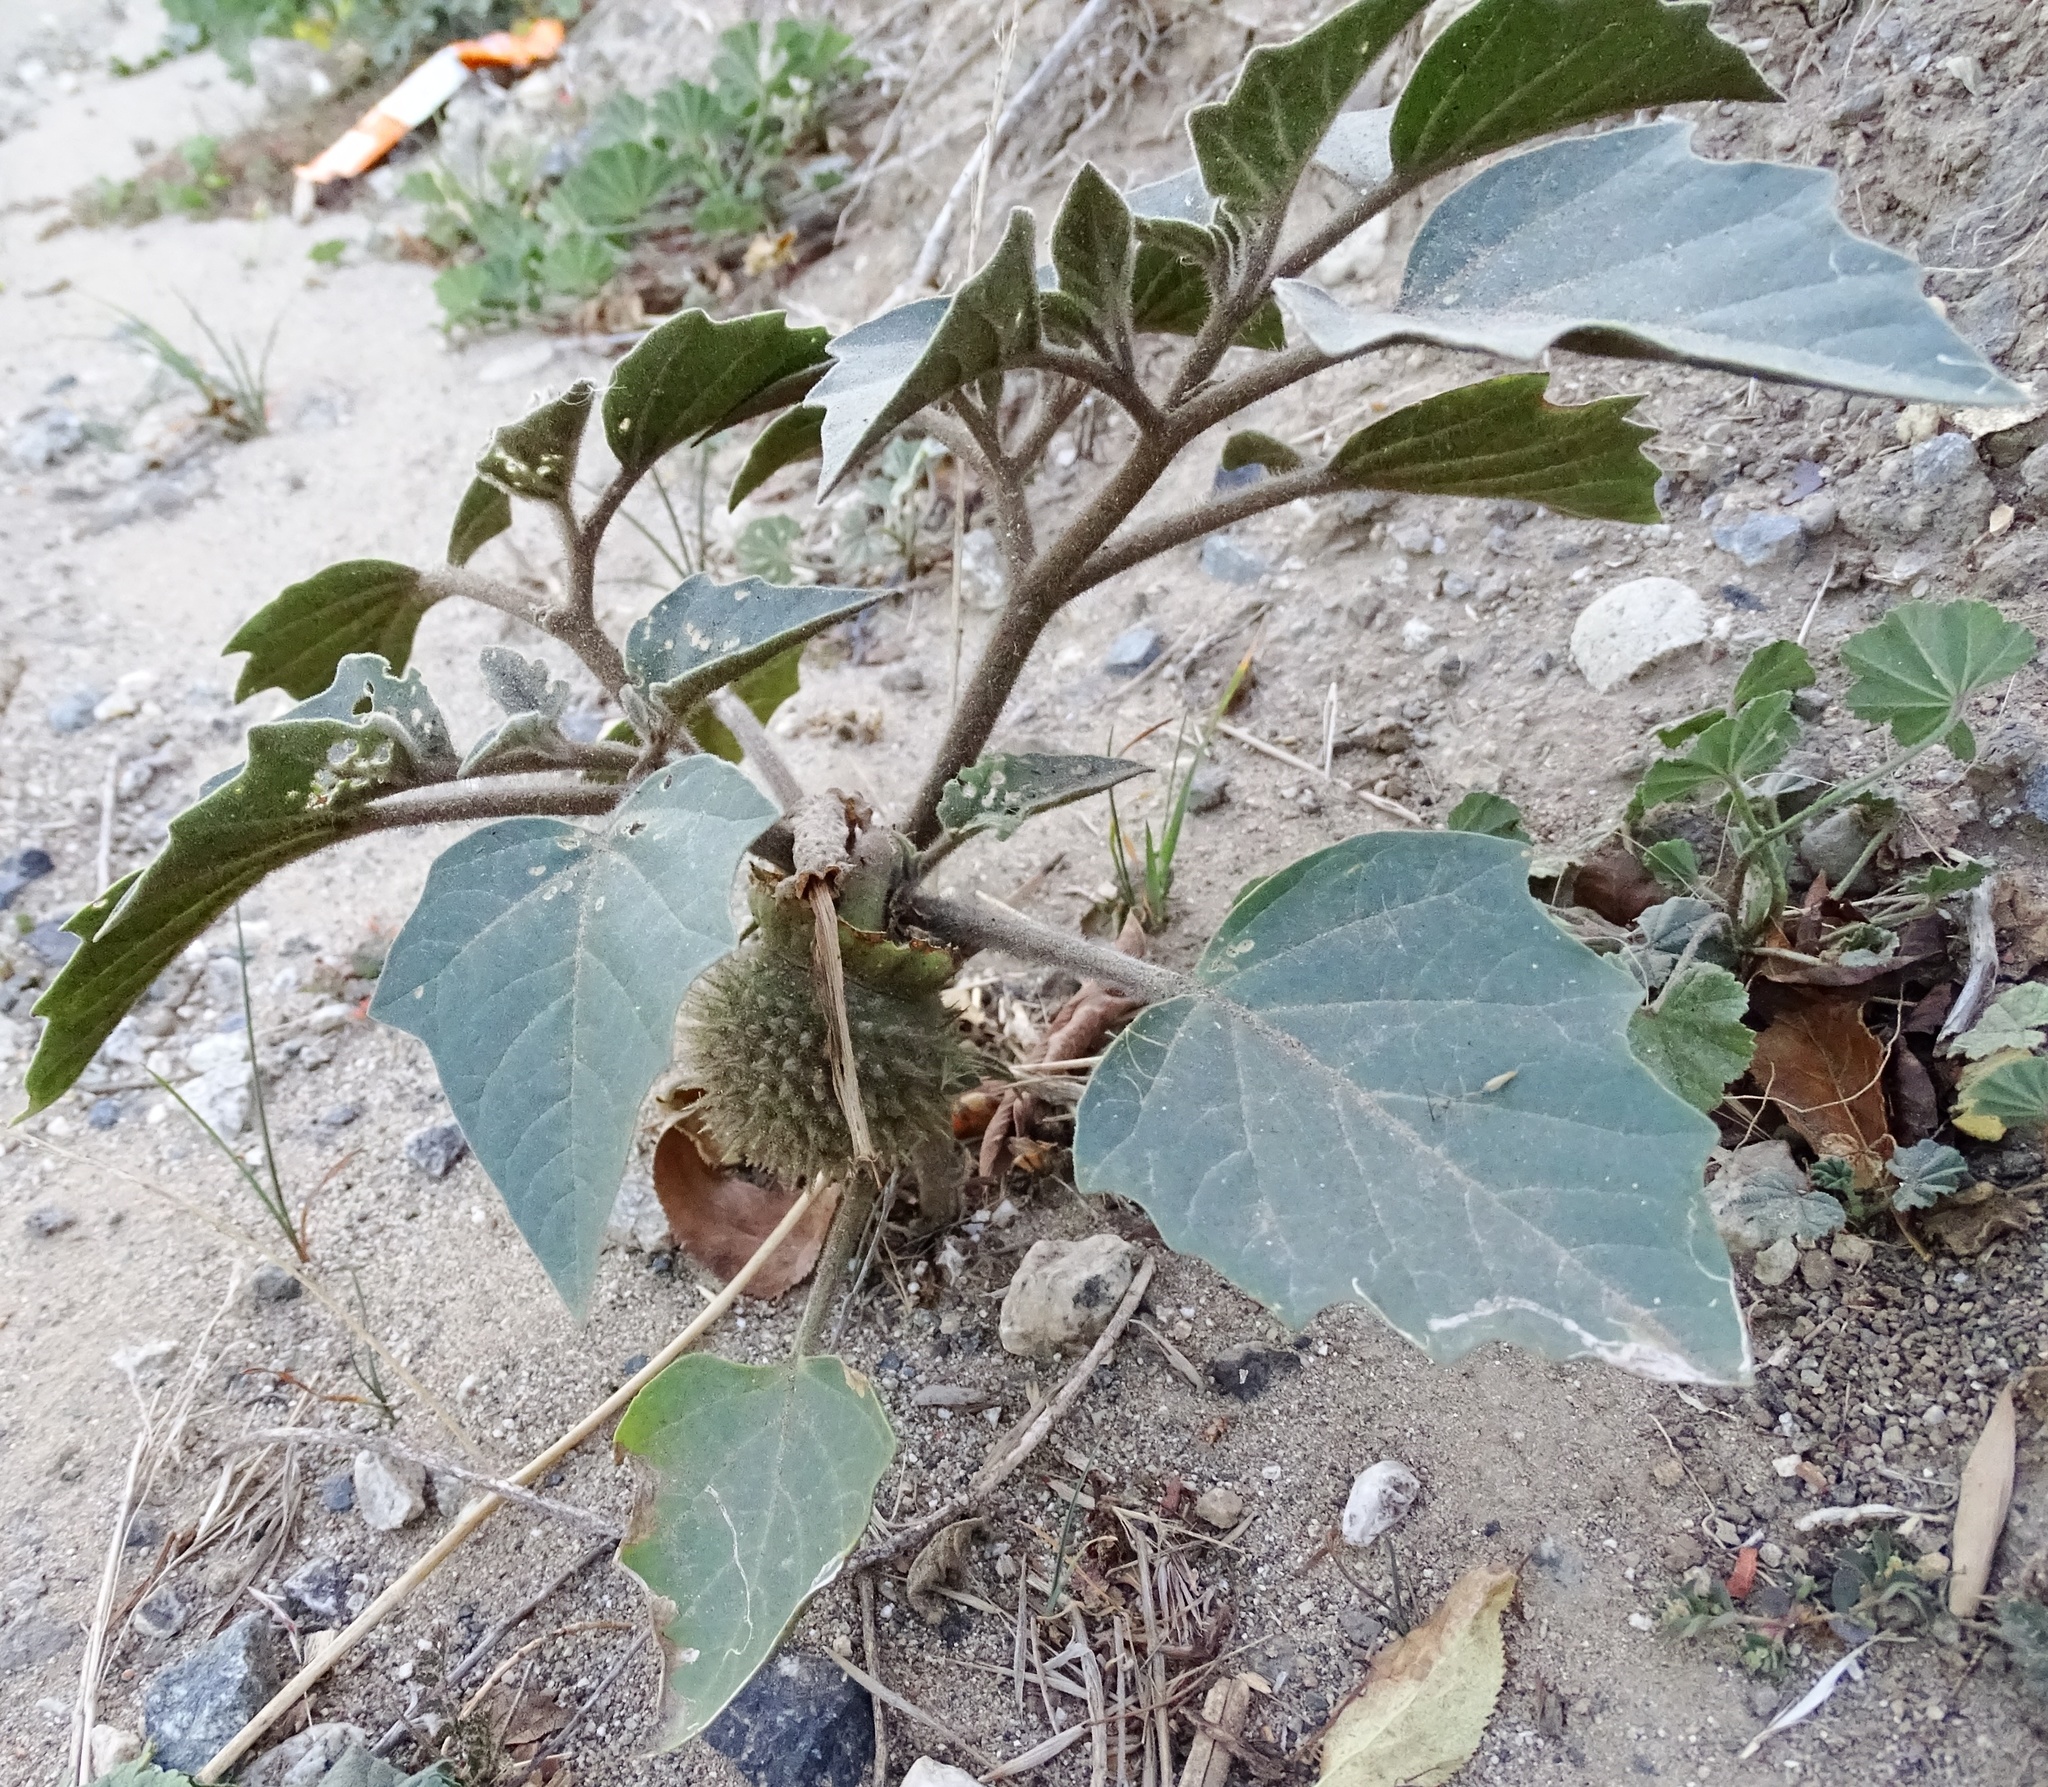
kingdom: Plantae
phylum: Tracheophyta
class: Magnoliopsida
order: Solanales
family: Solanaceae
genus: Datura
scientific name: Datura wrightii
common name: Sacred thorn-apple
